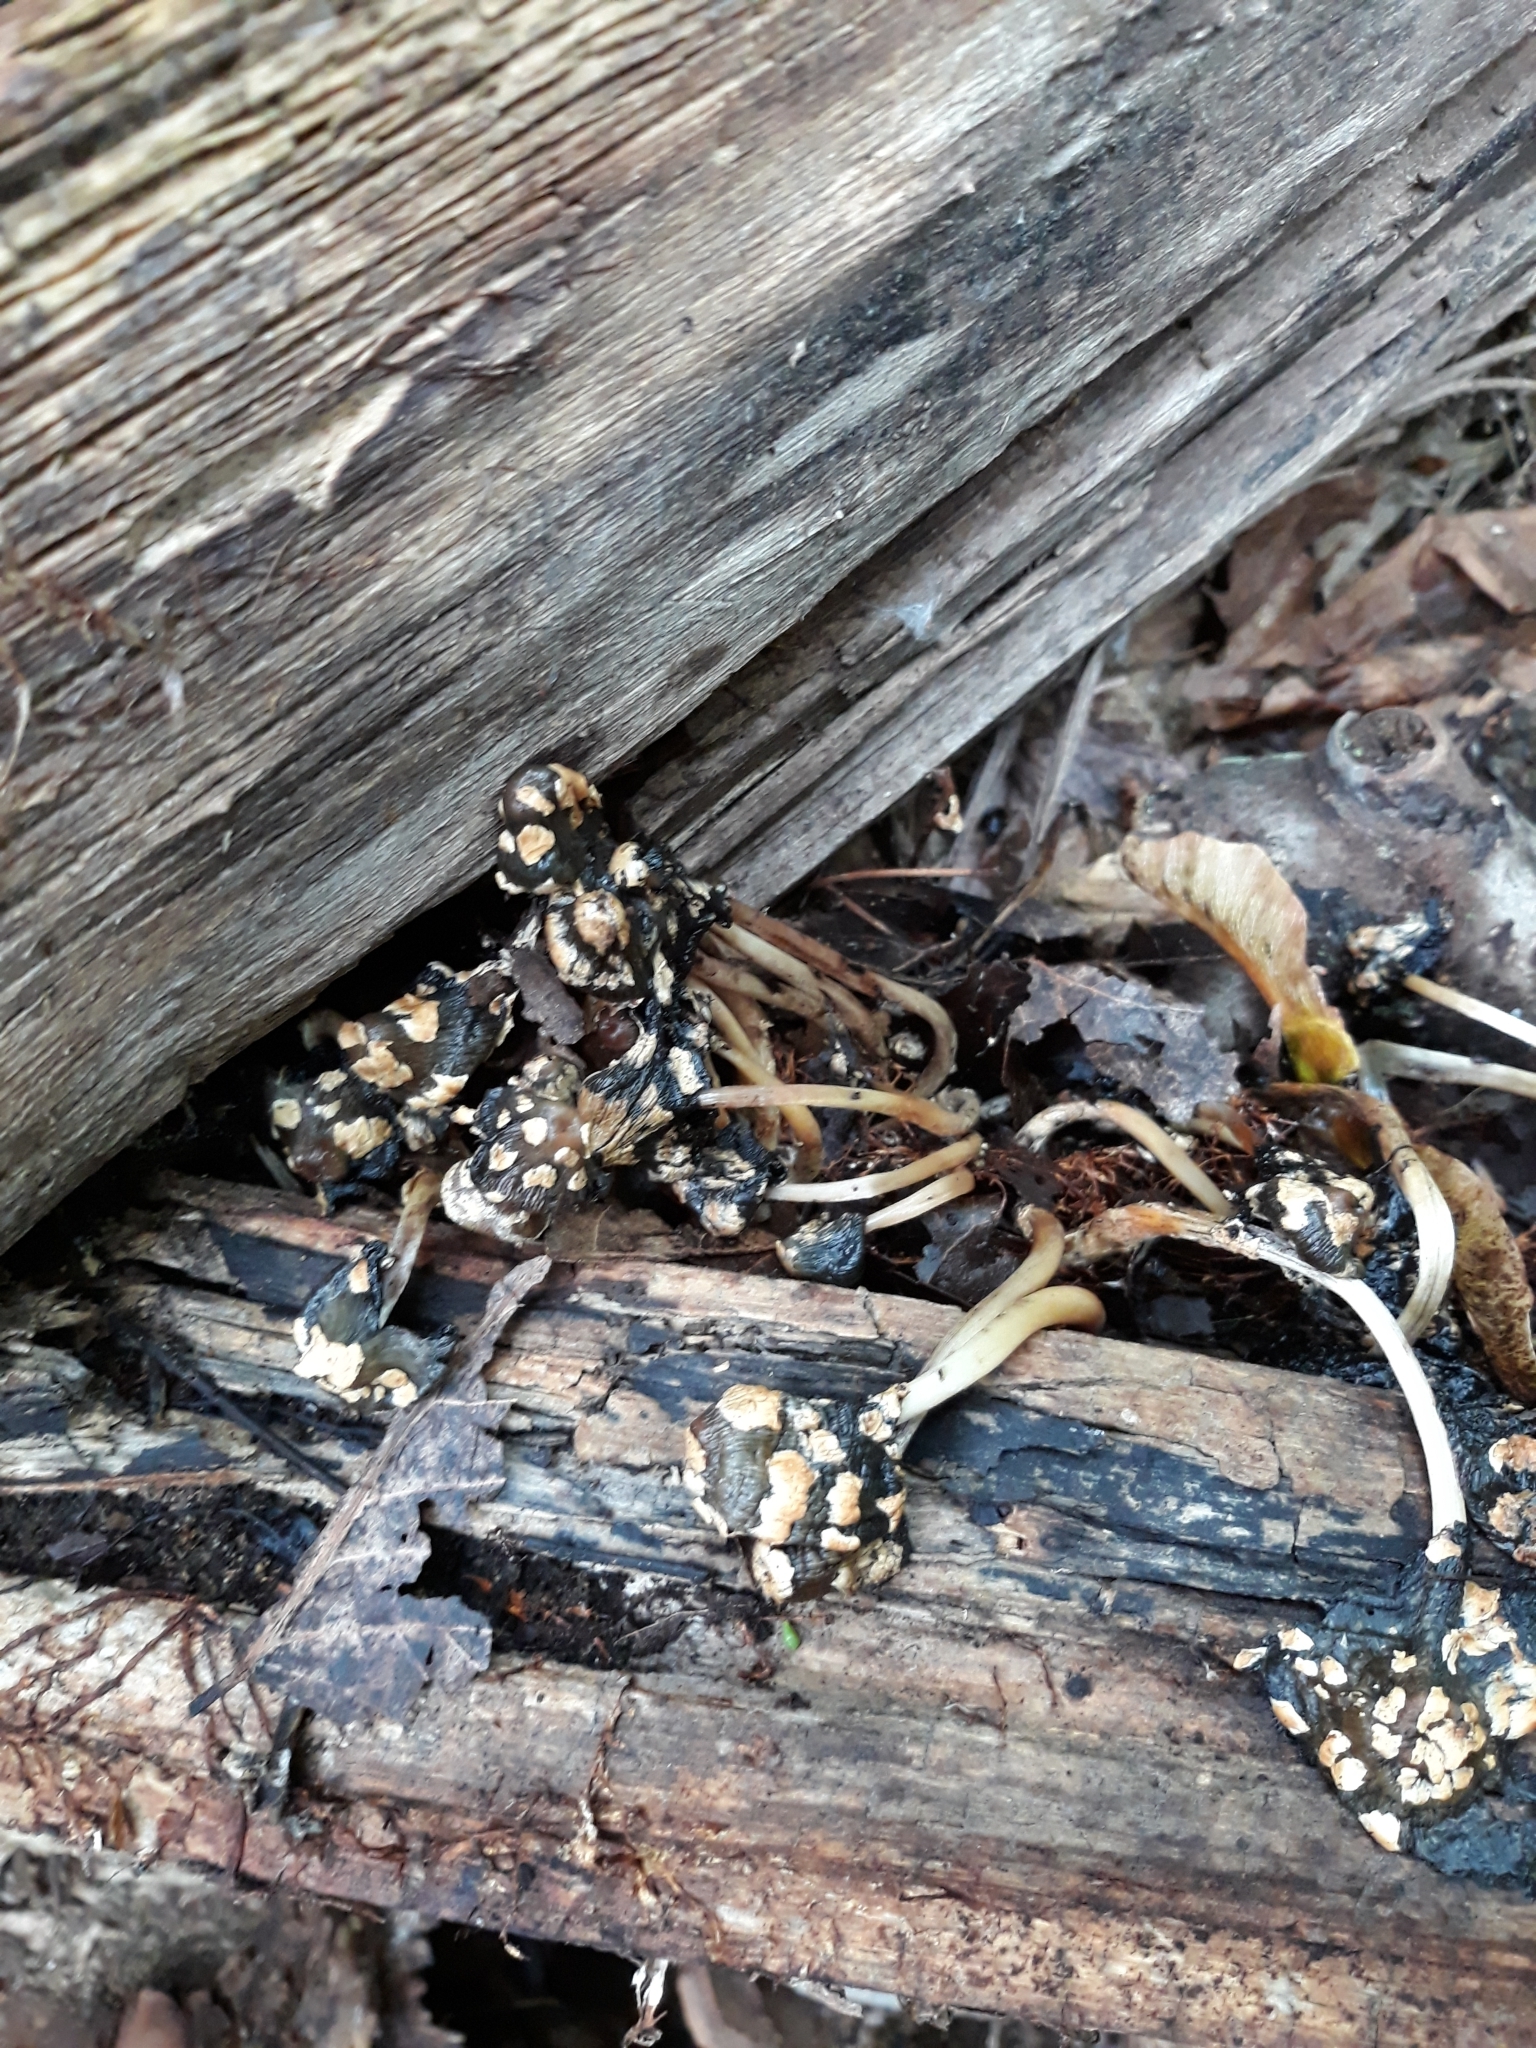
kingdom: Fungi
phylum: Basidiomycota
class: Agaricomycetes
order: Agaricales
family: Psathyrellaceae
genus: Coprinopsis
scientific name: Coprinopsis variegata
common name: Scaly ink cap
